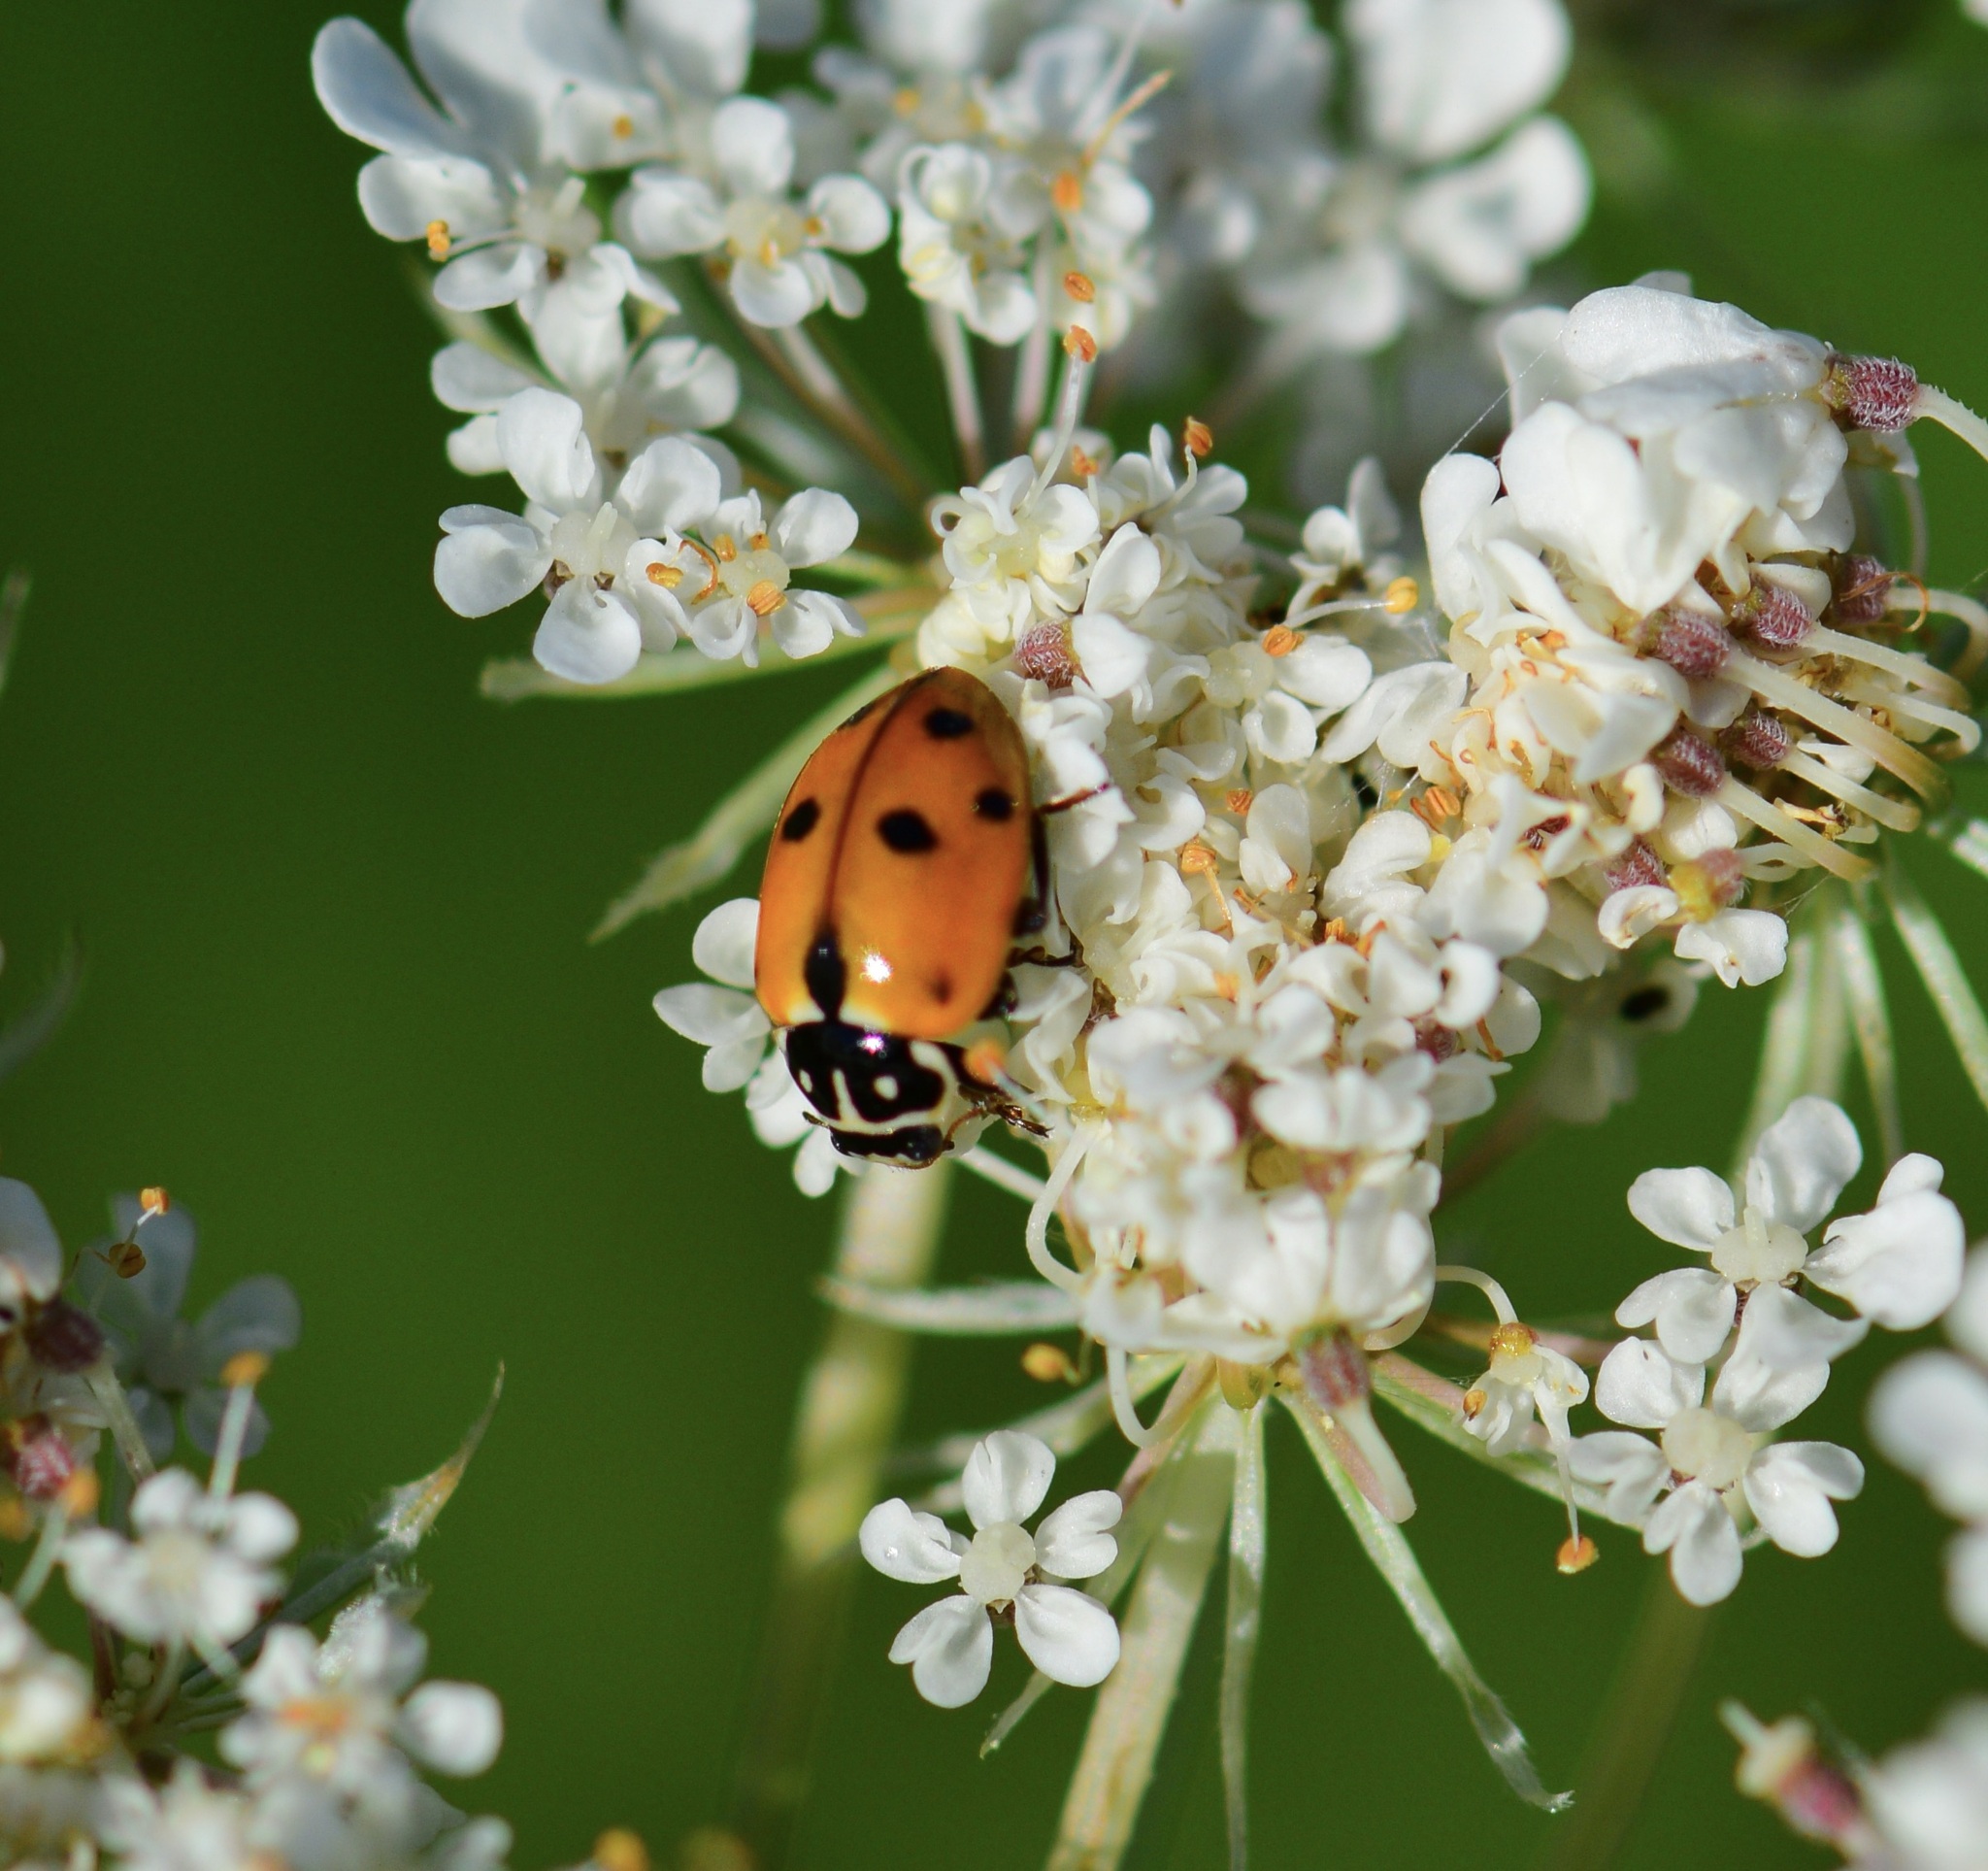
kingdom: Animalia
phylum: Arthropoda
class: Insecta
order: Coleoptera
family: Coccinellidae
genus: Hippodamia
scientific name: Hippodamia variegata
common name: Ladybird beetle
